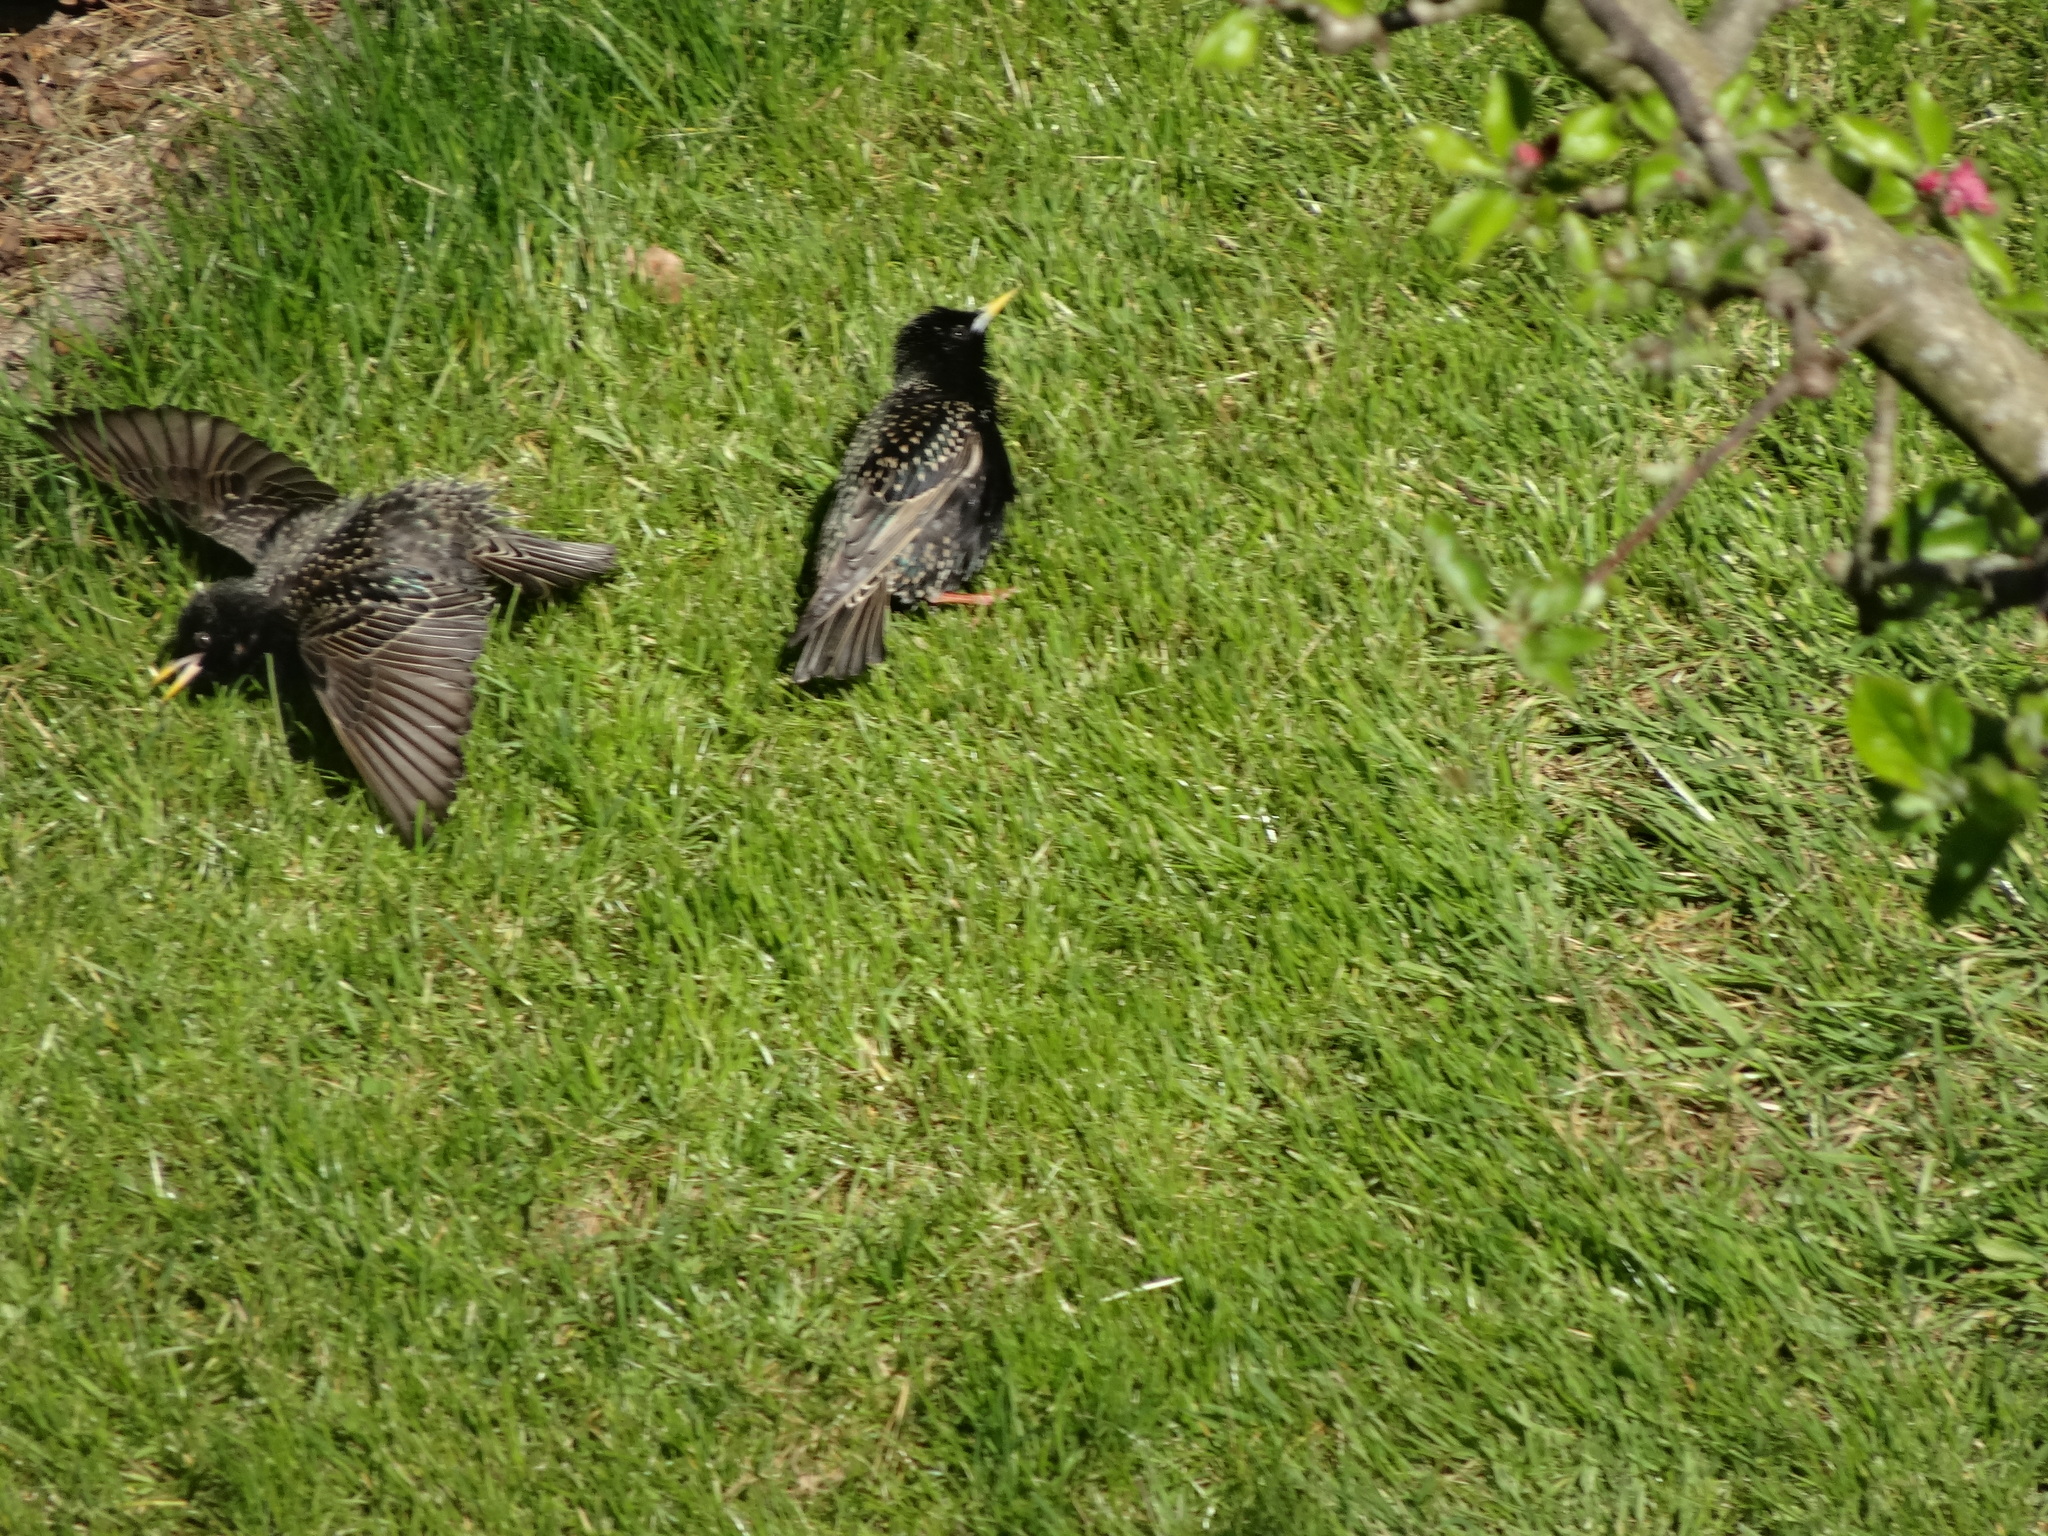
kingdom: Animalia
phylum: Chordata
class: Aves
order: Passeriformes
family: Sturnidae
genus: Sturnus
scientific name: Sturnus vulgaris
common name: Common starling
